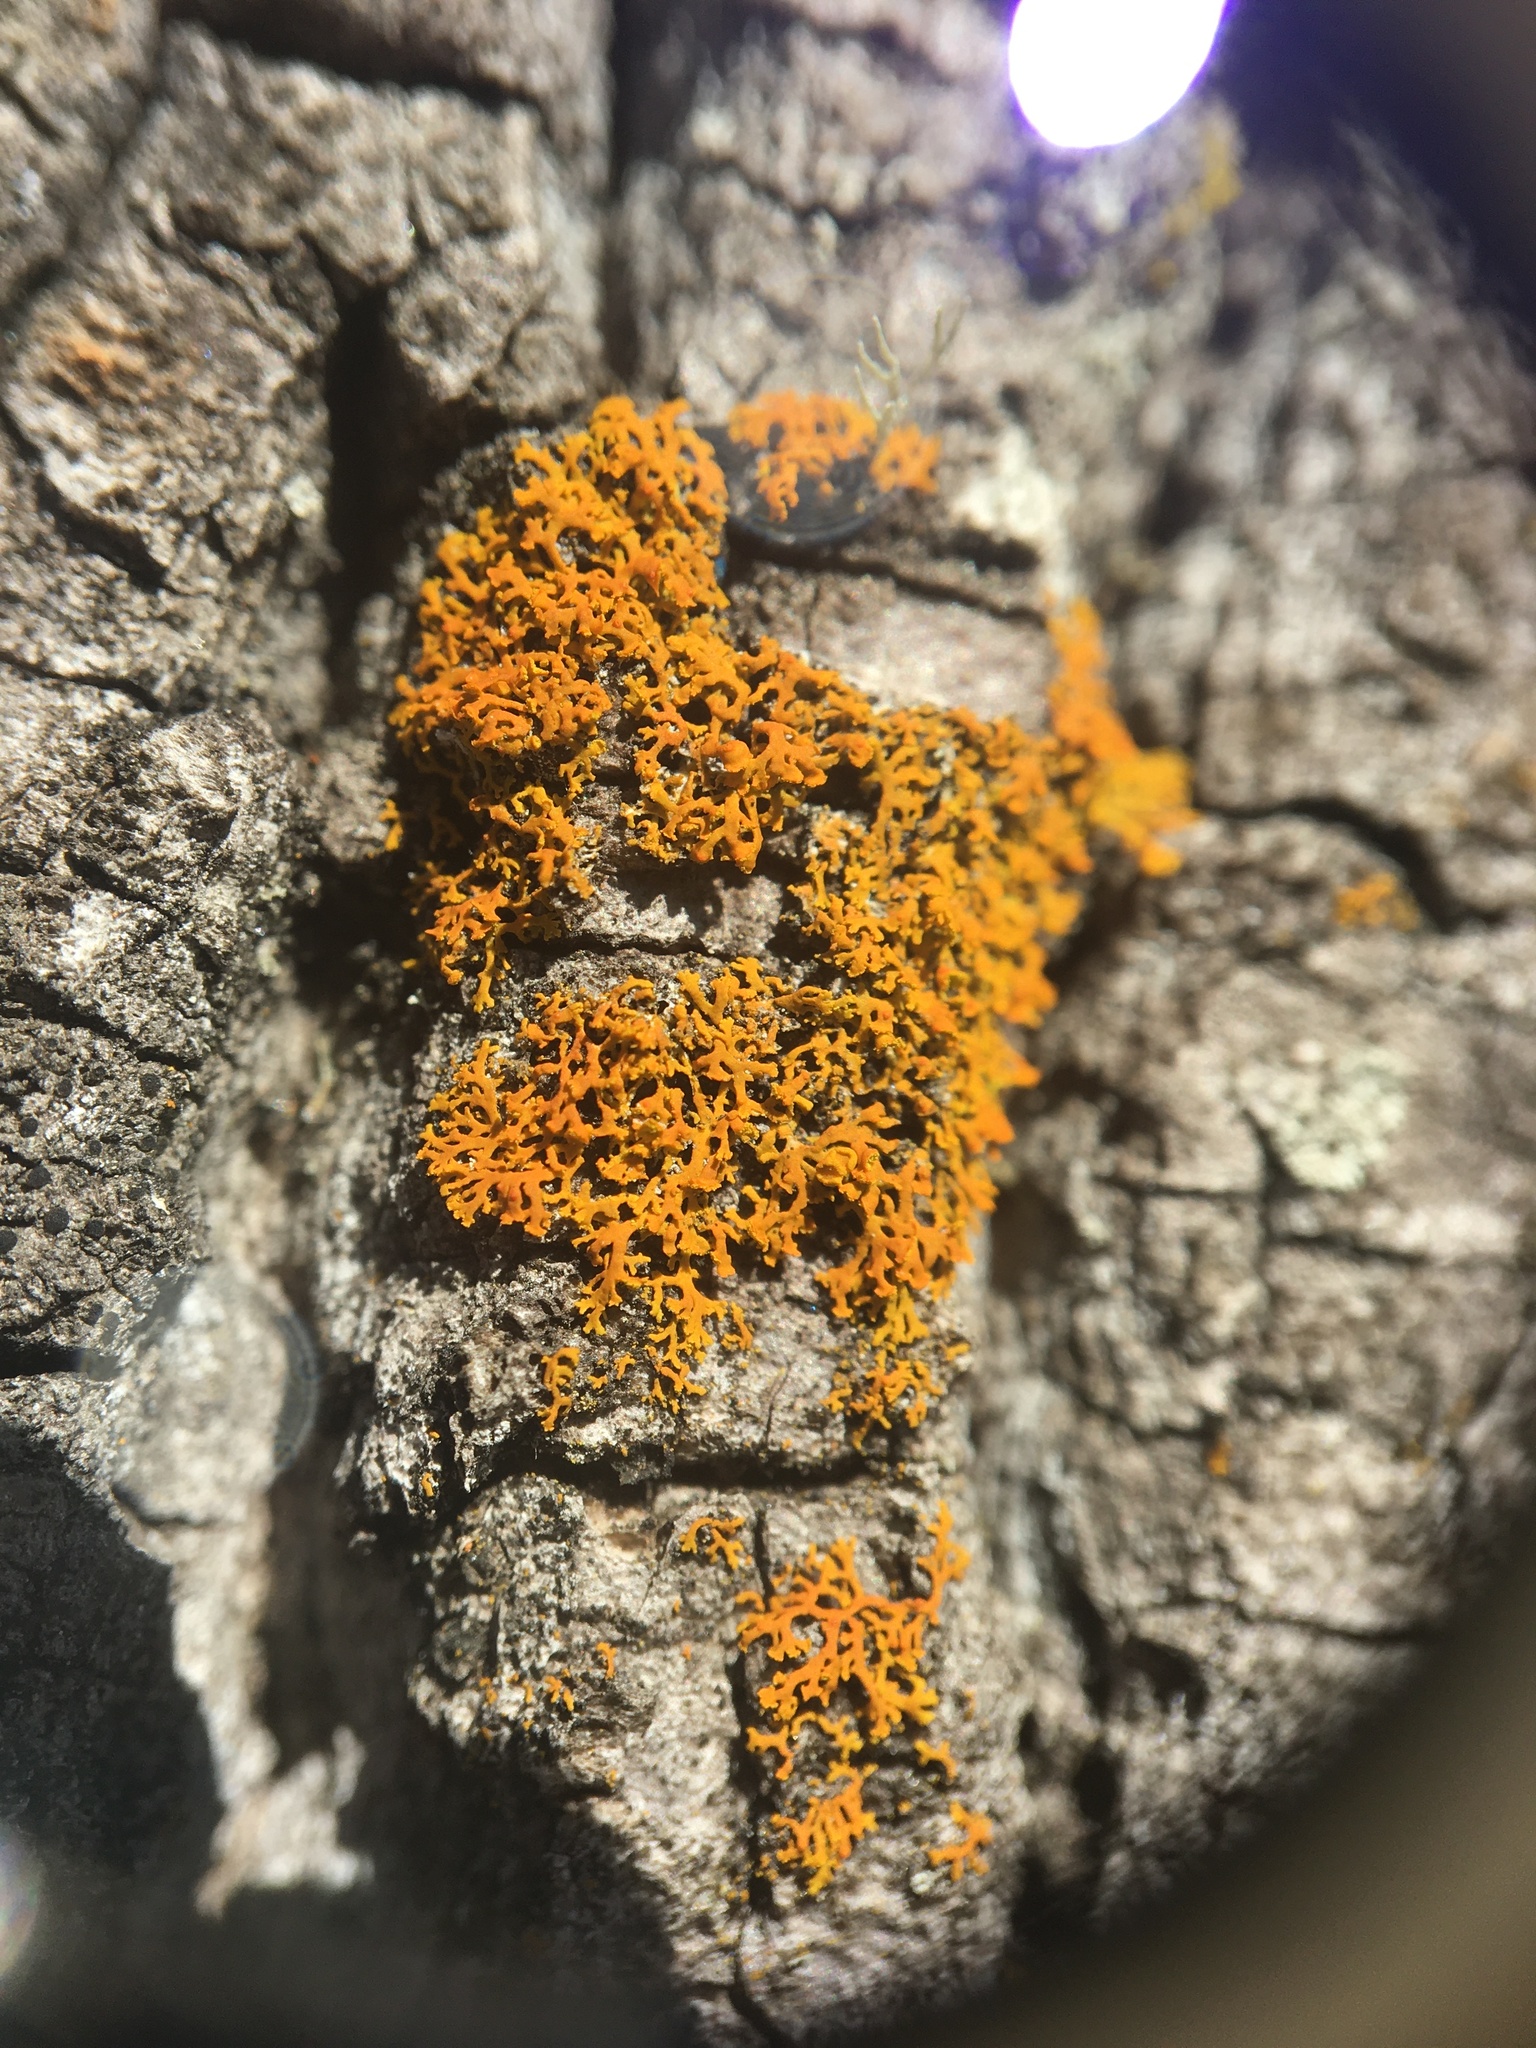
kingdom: Fungi
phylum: Ascomycota
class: Lecanoromycetes
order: Teloschistales
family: Teloschistaceae
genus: Gallowayella
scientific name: Gallowayella weberi
